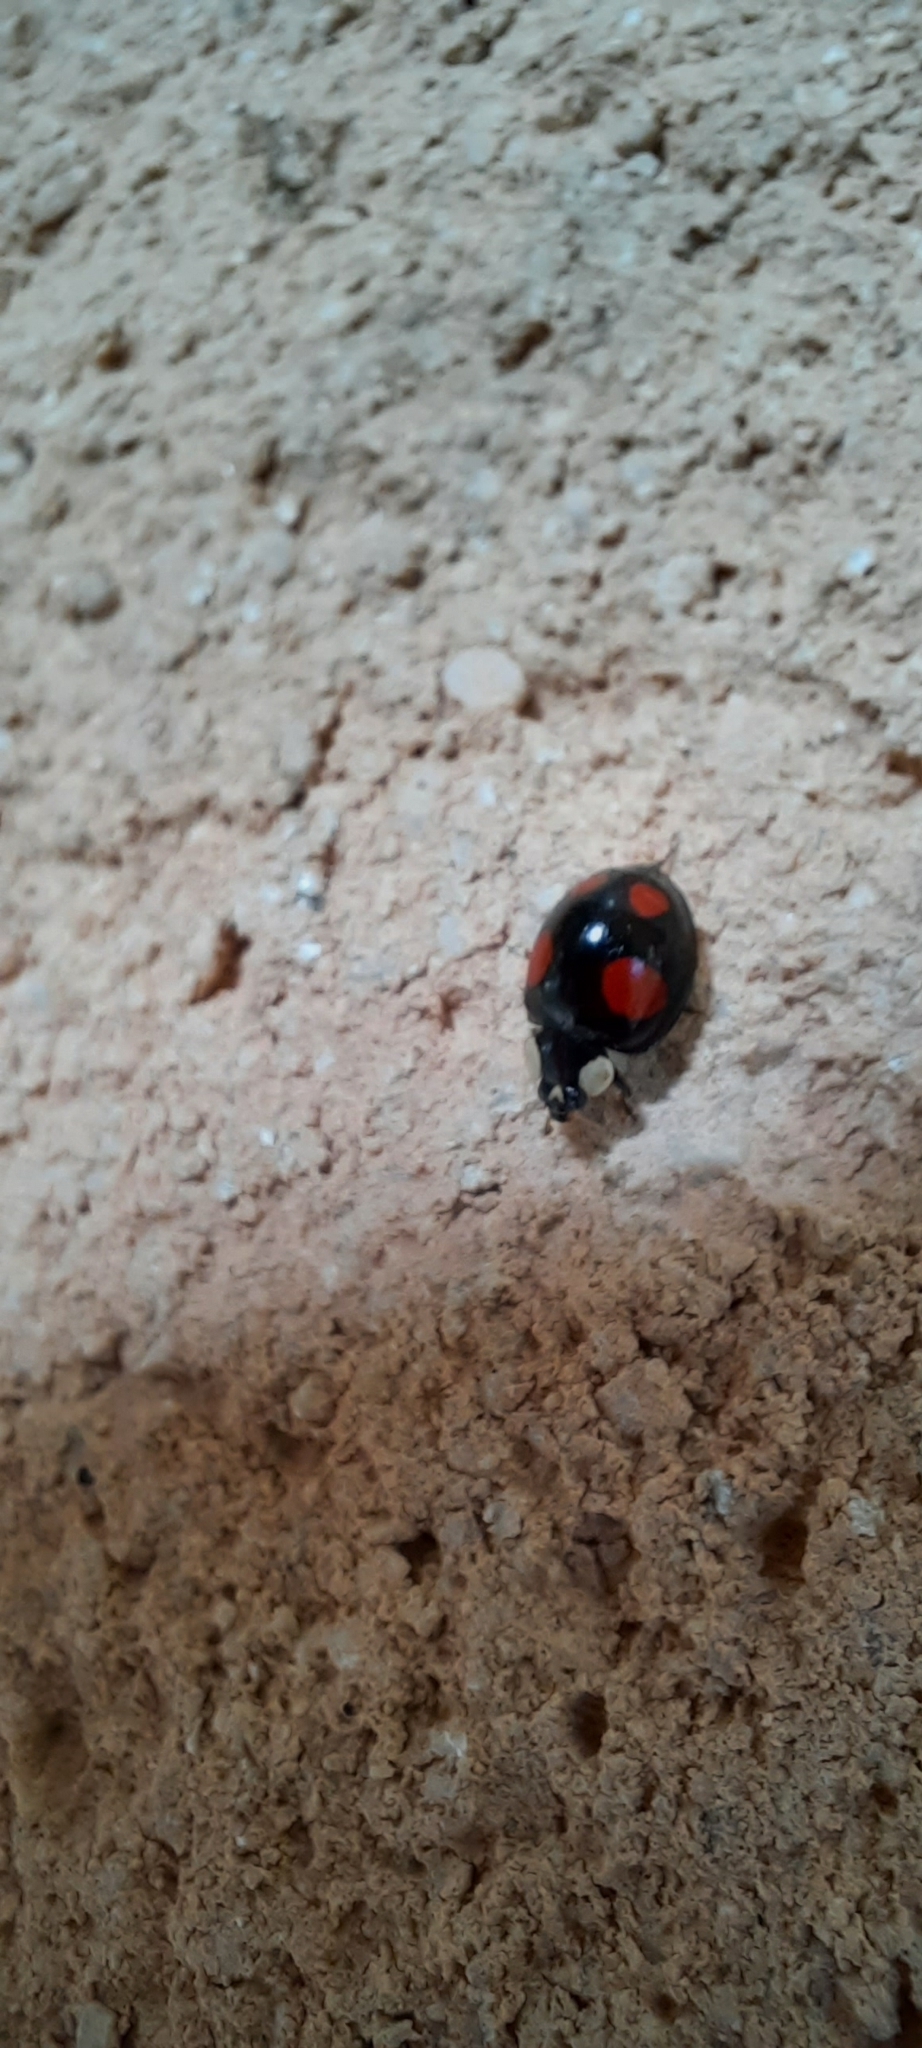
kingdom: Animalia
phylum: Arthropoda
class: Insecta
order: Coleoptera
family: Coccinellidae
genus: Harmonia
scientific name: Harmonia axyridis
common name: Harlequin ladybird
